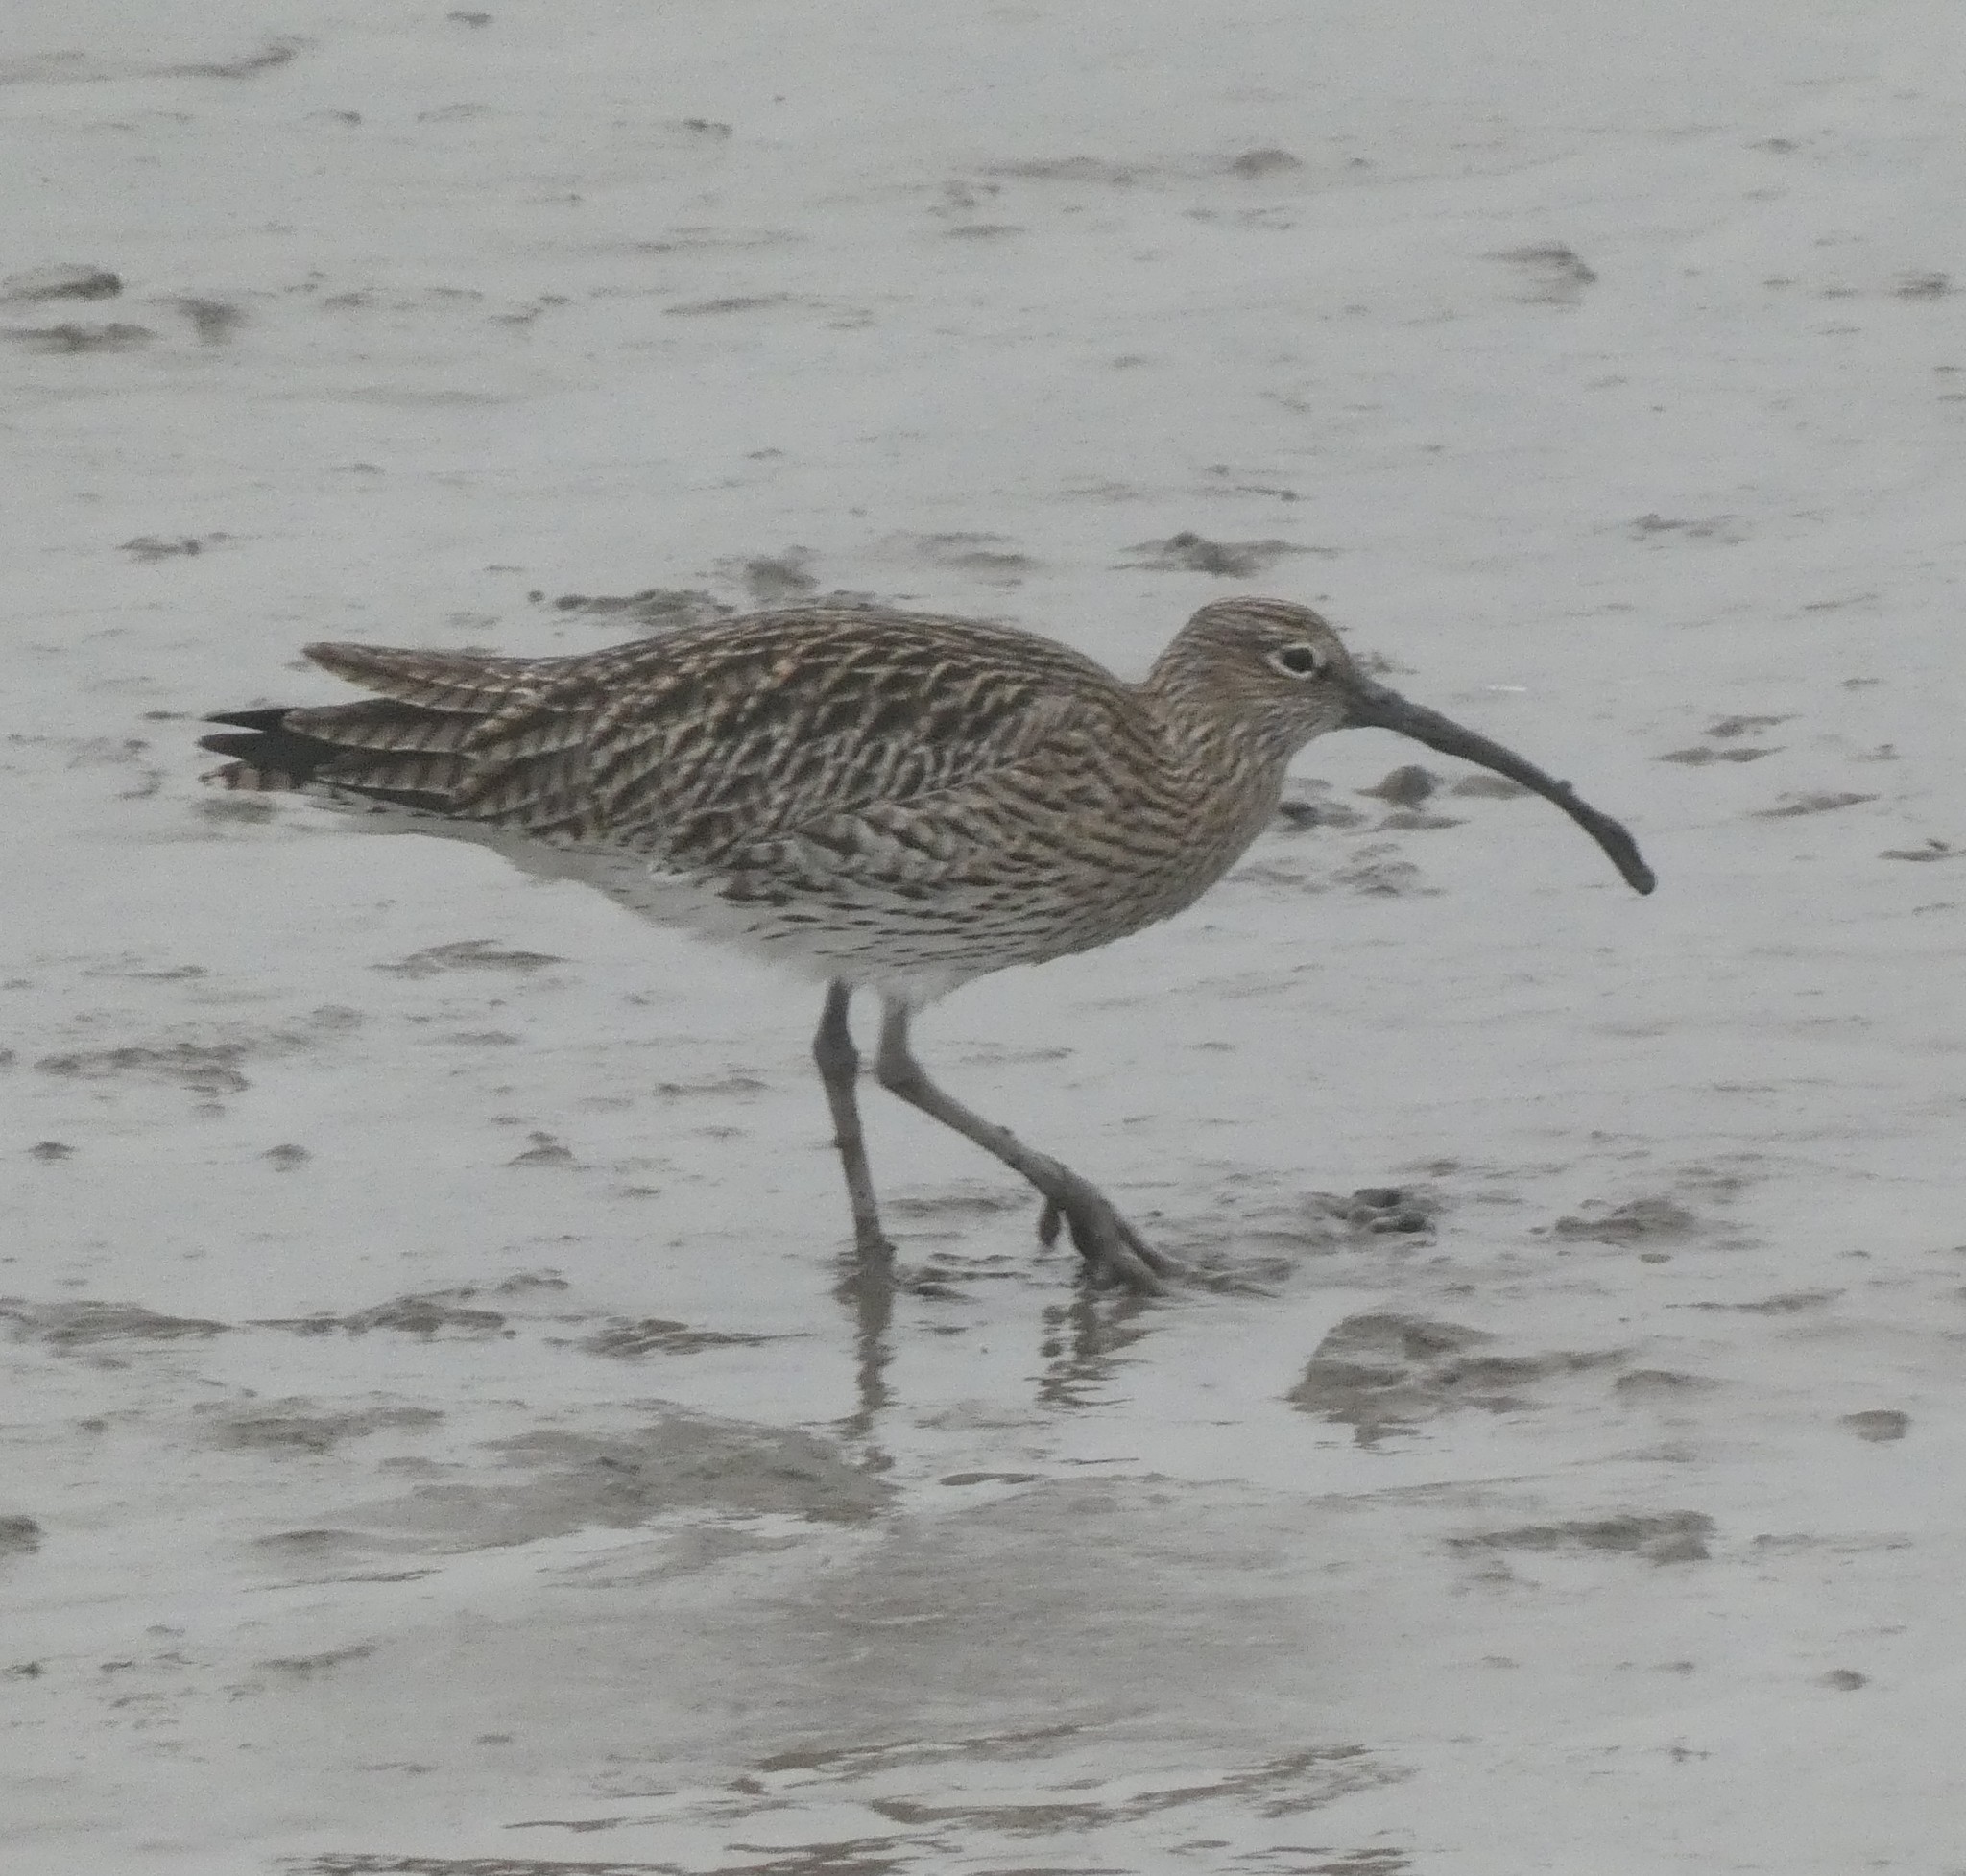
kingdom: Animalia
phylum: Chordata
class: Aves
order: Charadriiformes
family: Scolopacidae
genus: Numenius
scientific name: Numenius arquata
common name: Eurasian curlew
